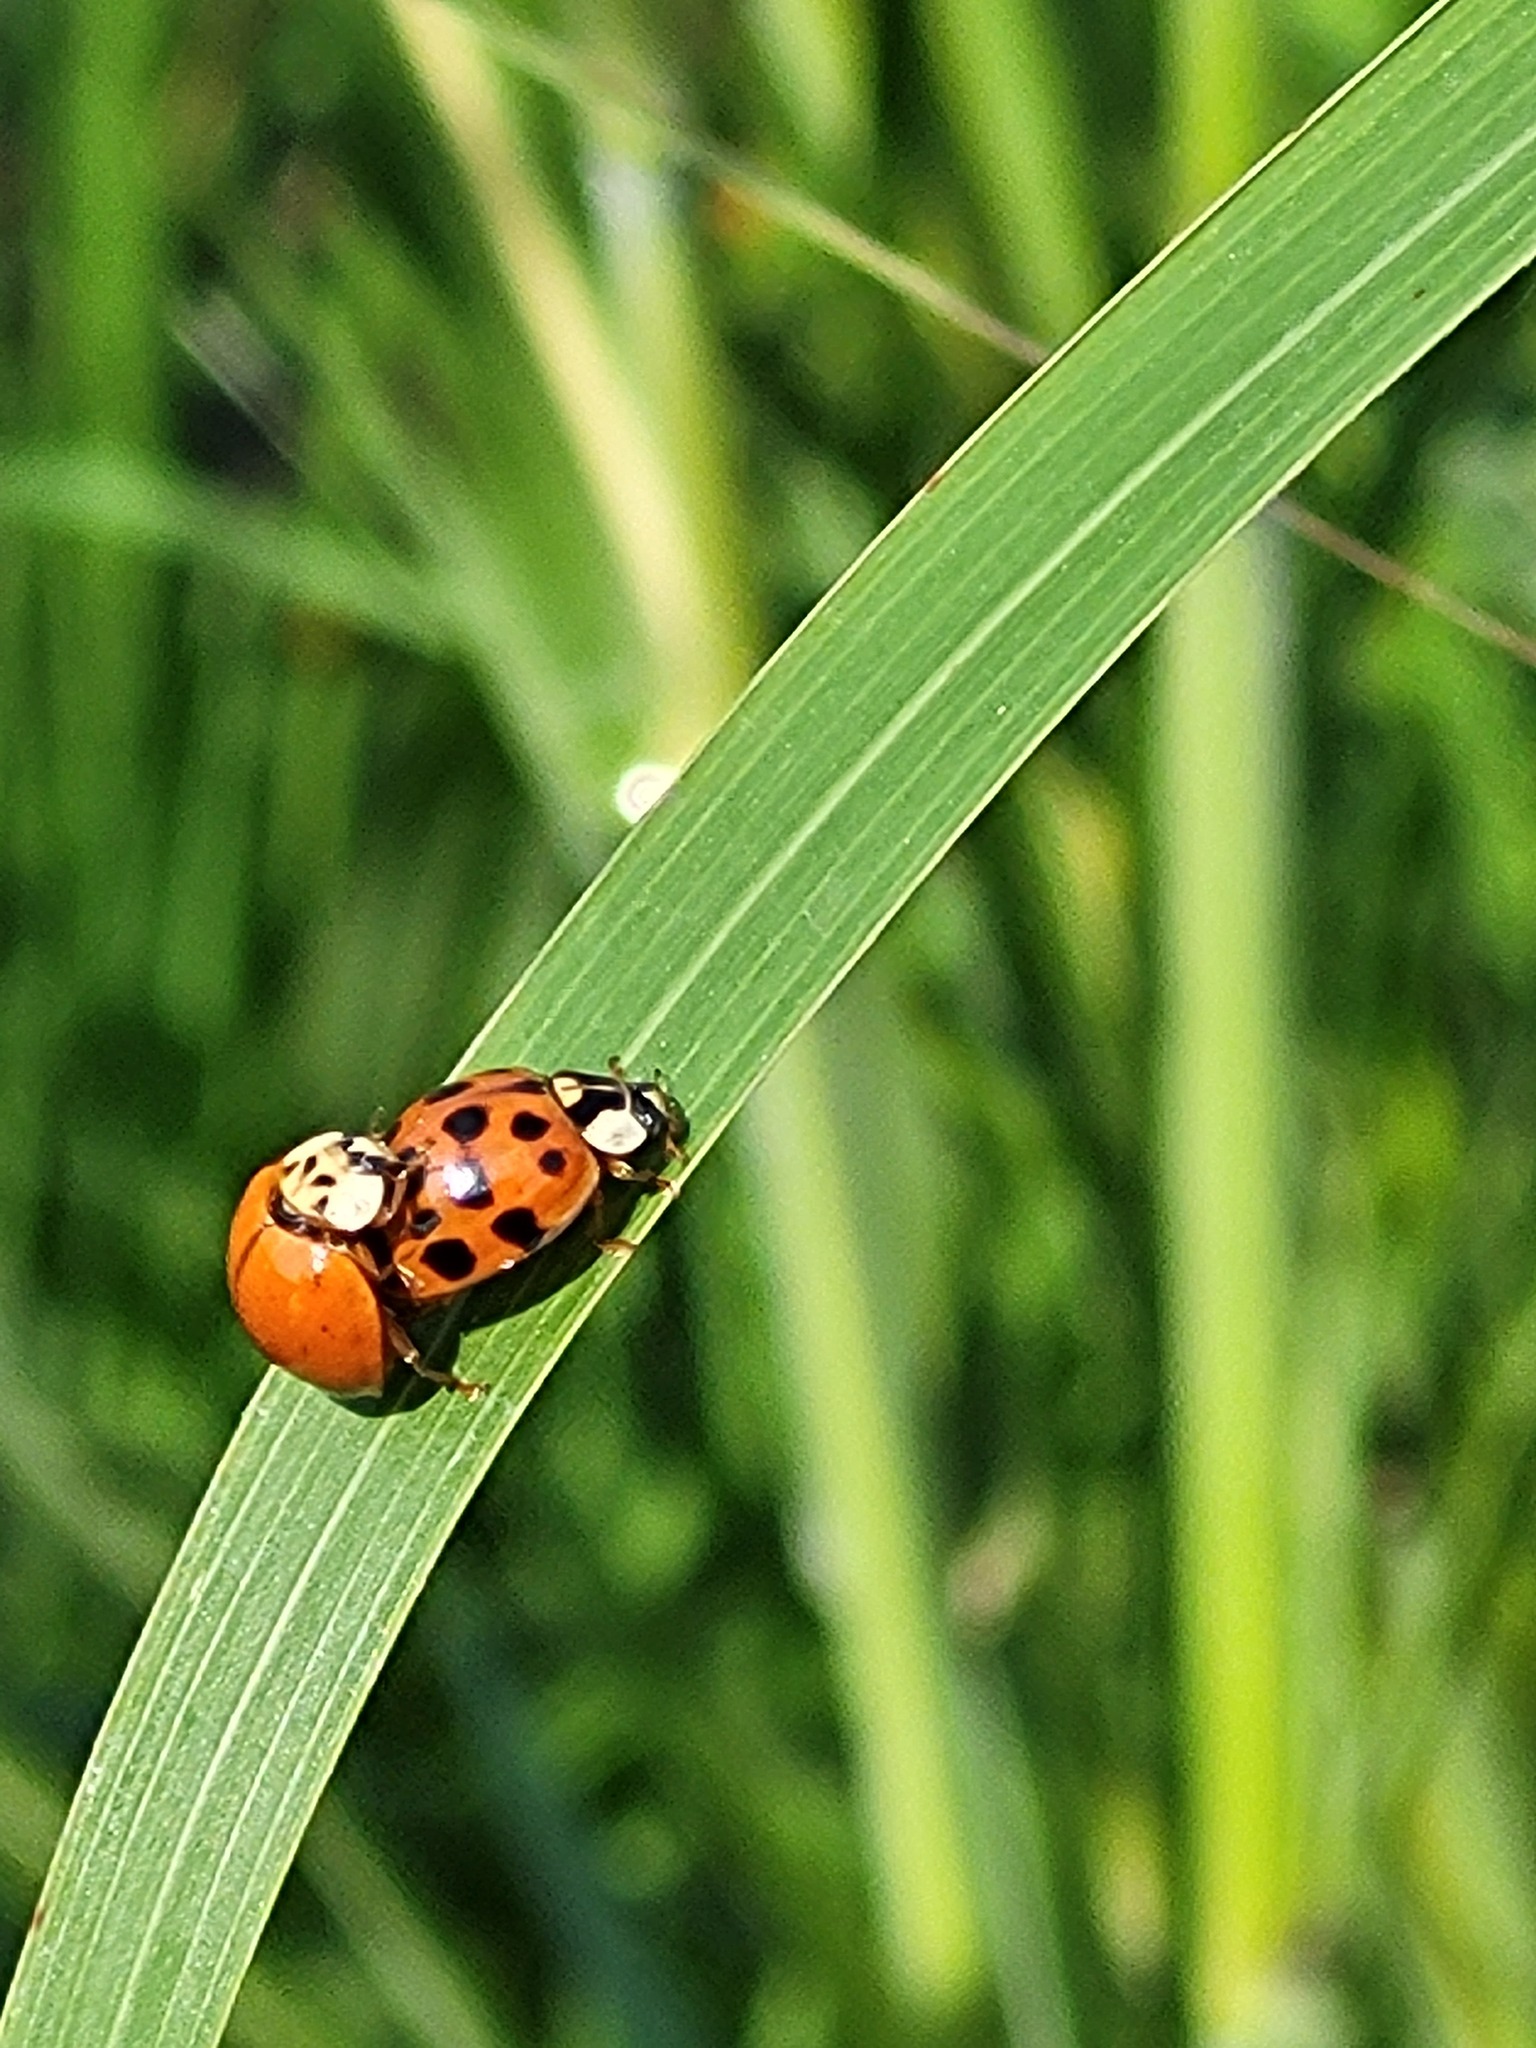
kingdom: Animalia
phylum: Arthropoda
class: Insecta
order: Coleoptera
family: Coccinellidae
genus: Harmonia
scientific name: Harmonia axyridis
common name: Harlequin ladybird
